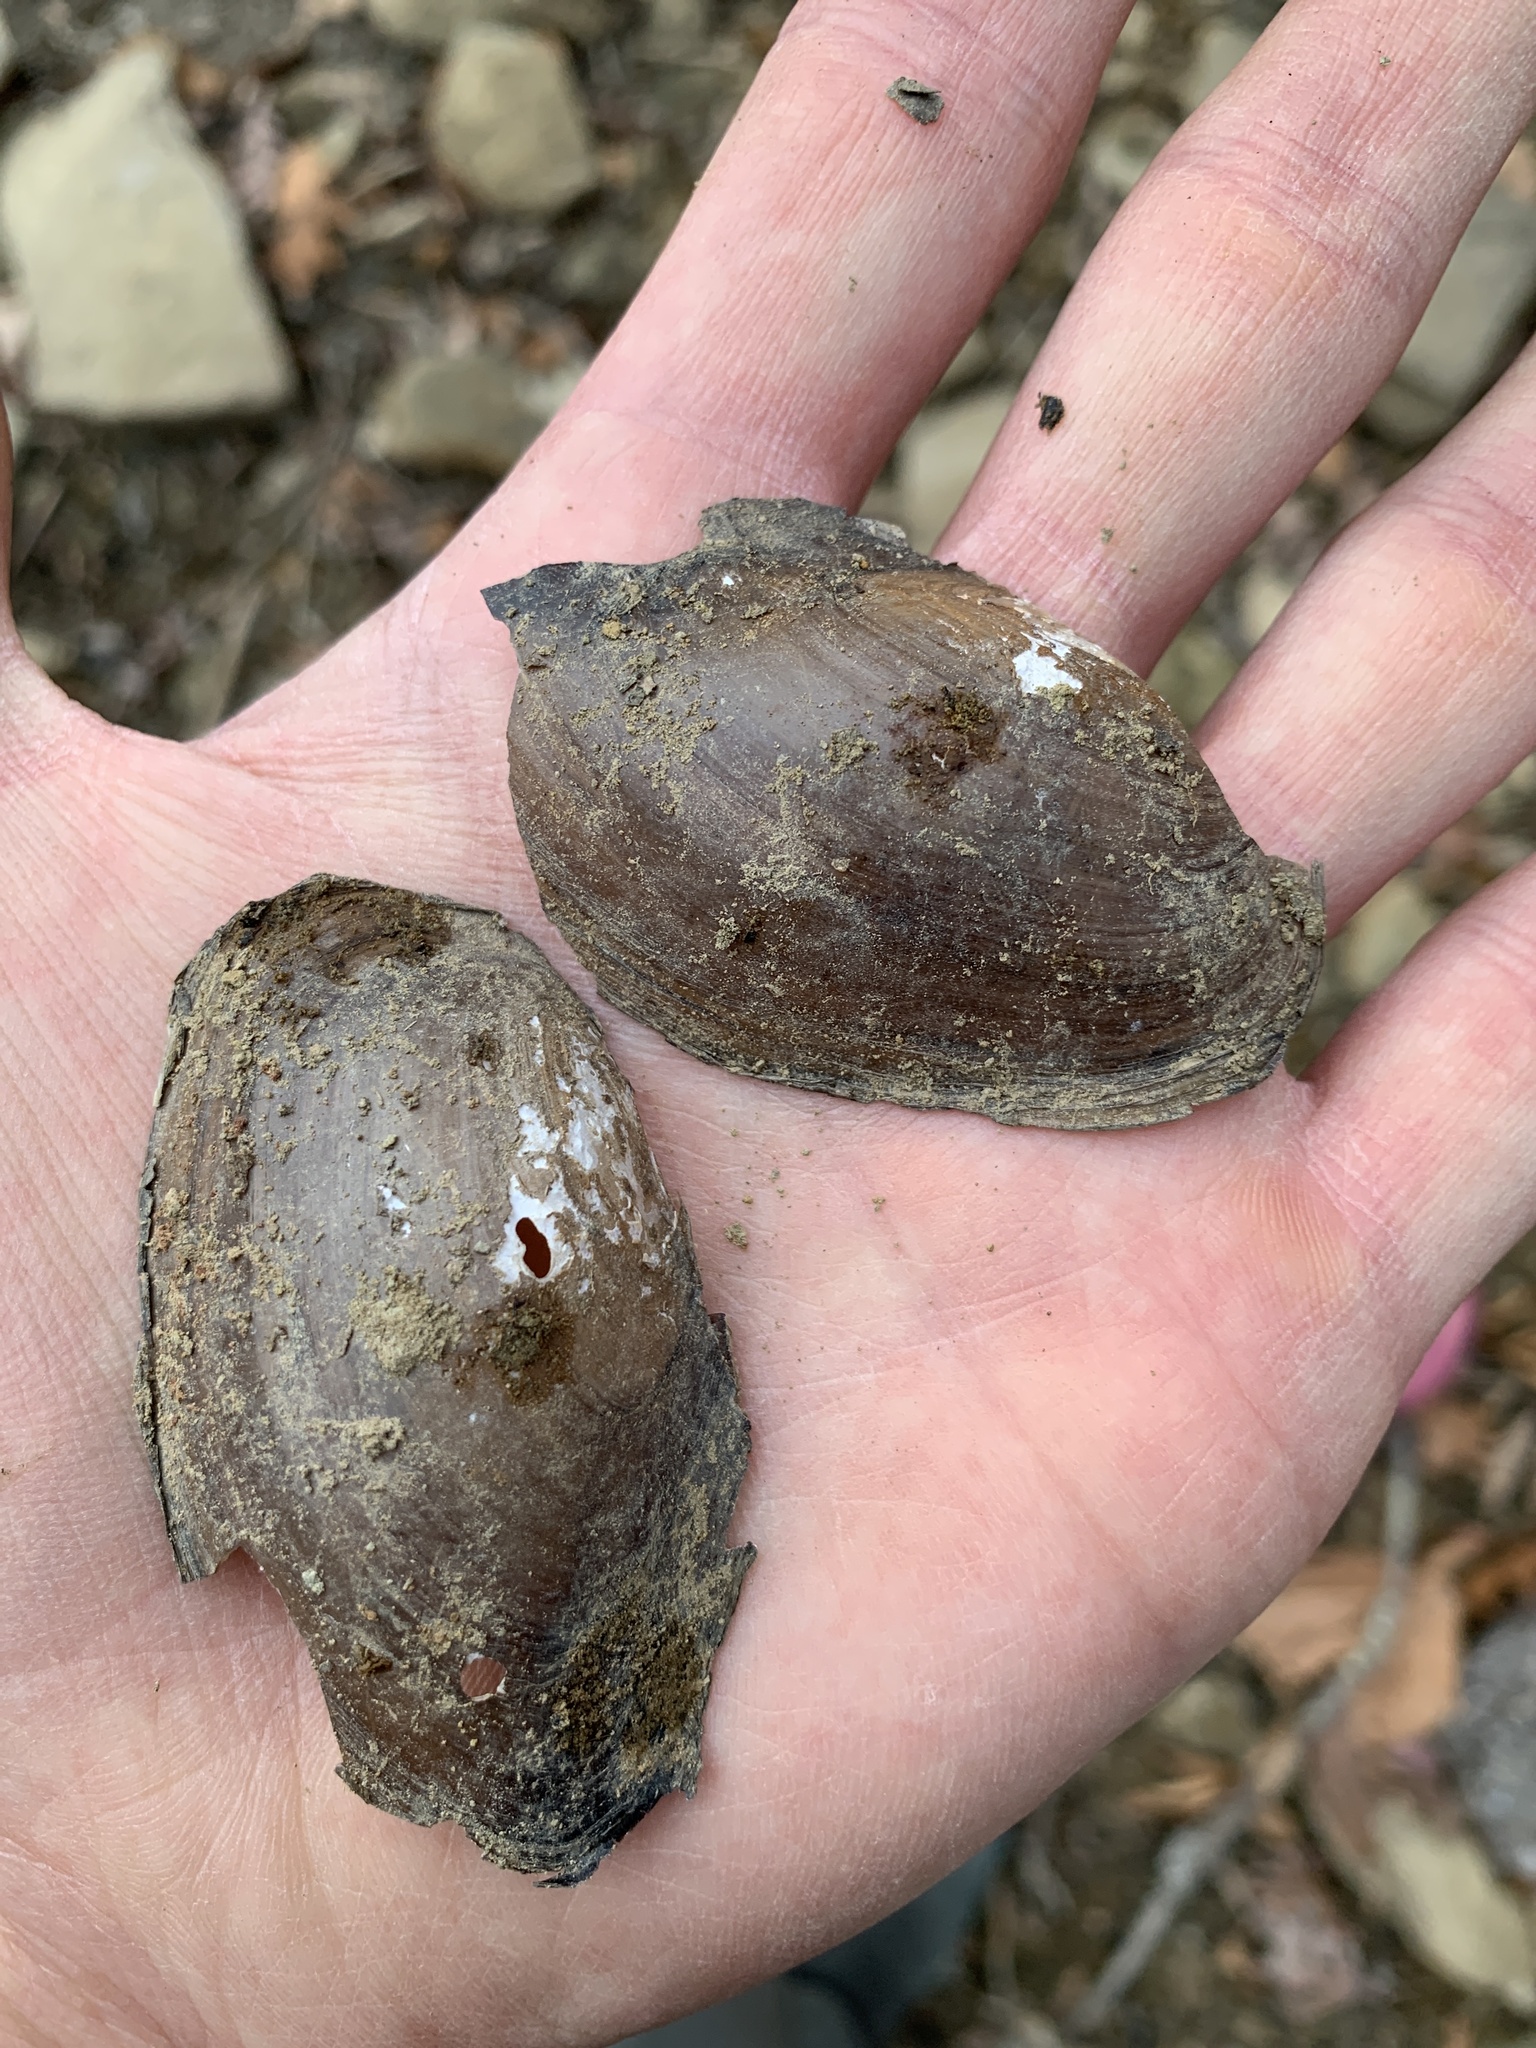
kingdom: Animalia
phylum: Mollusca
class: Bivalvia
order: Unionida
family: Unionidae
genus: Utterbackia
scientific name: Utterbackia imbecillis
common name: Paper pondshell
